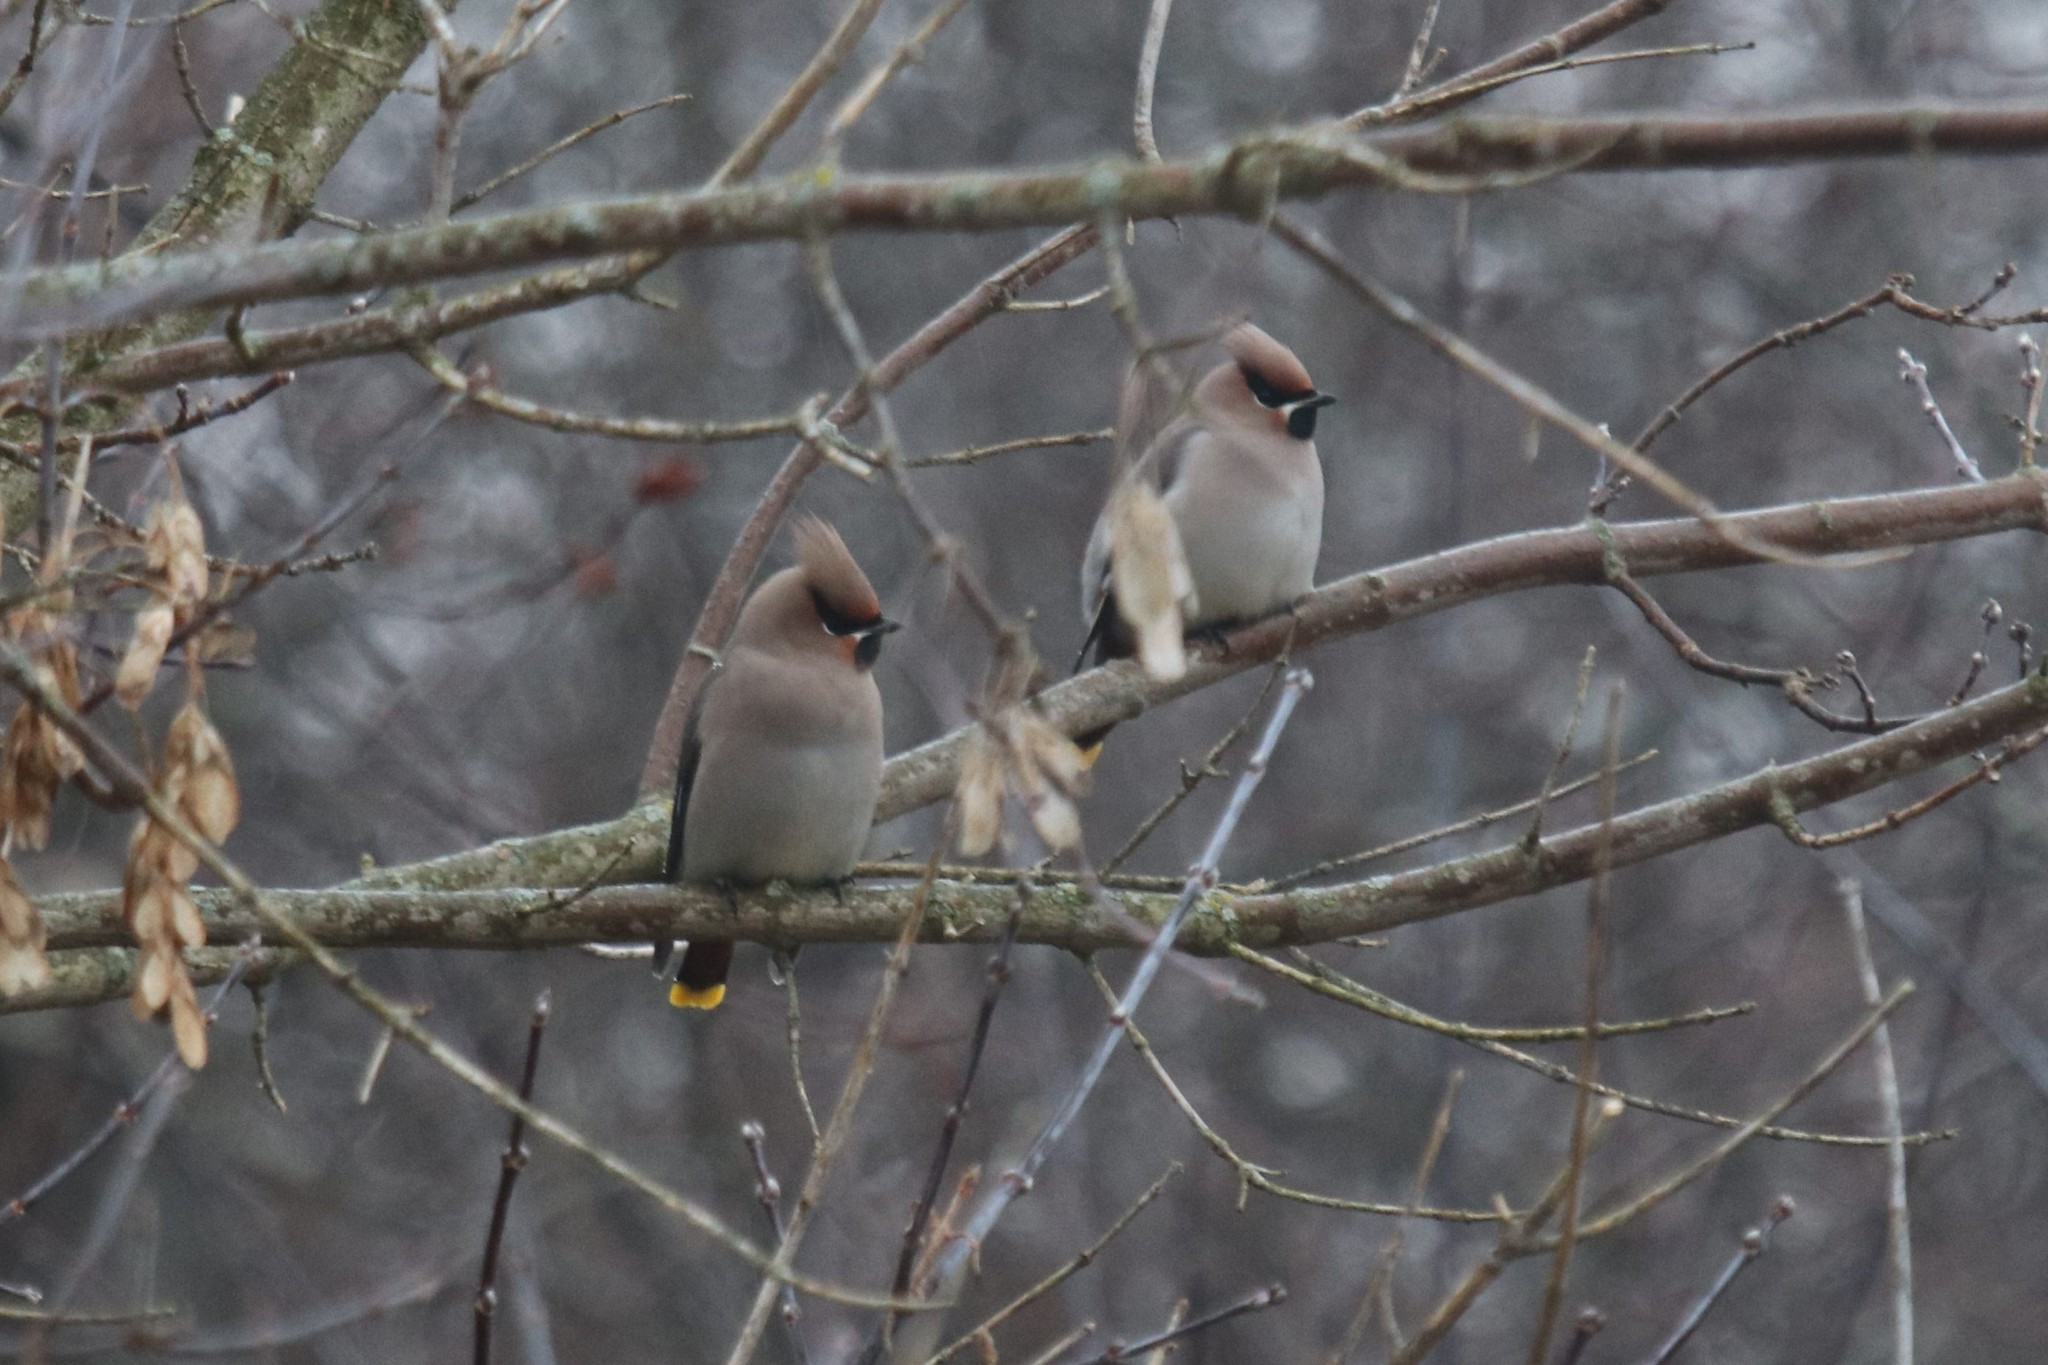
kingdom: Animalia
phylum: Chordata
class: Aves
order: Passeriformes
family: Bombycillidae
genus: Bombycilla
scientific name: Bombycilla garrulus
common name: Bohemian waxwing
